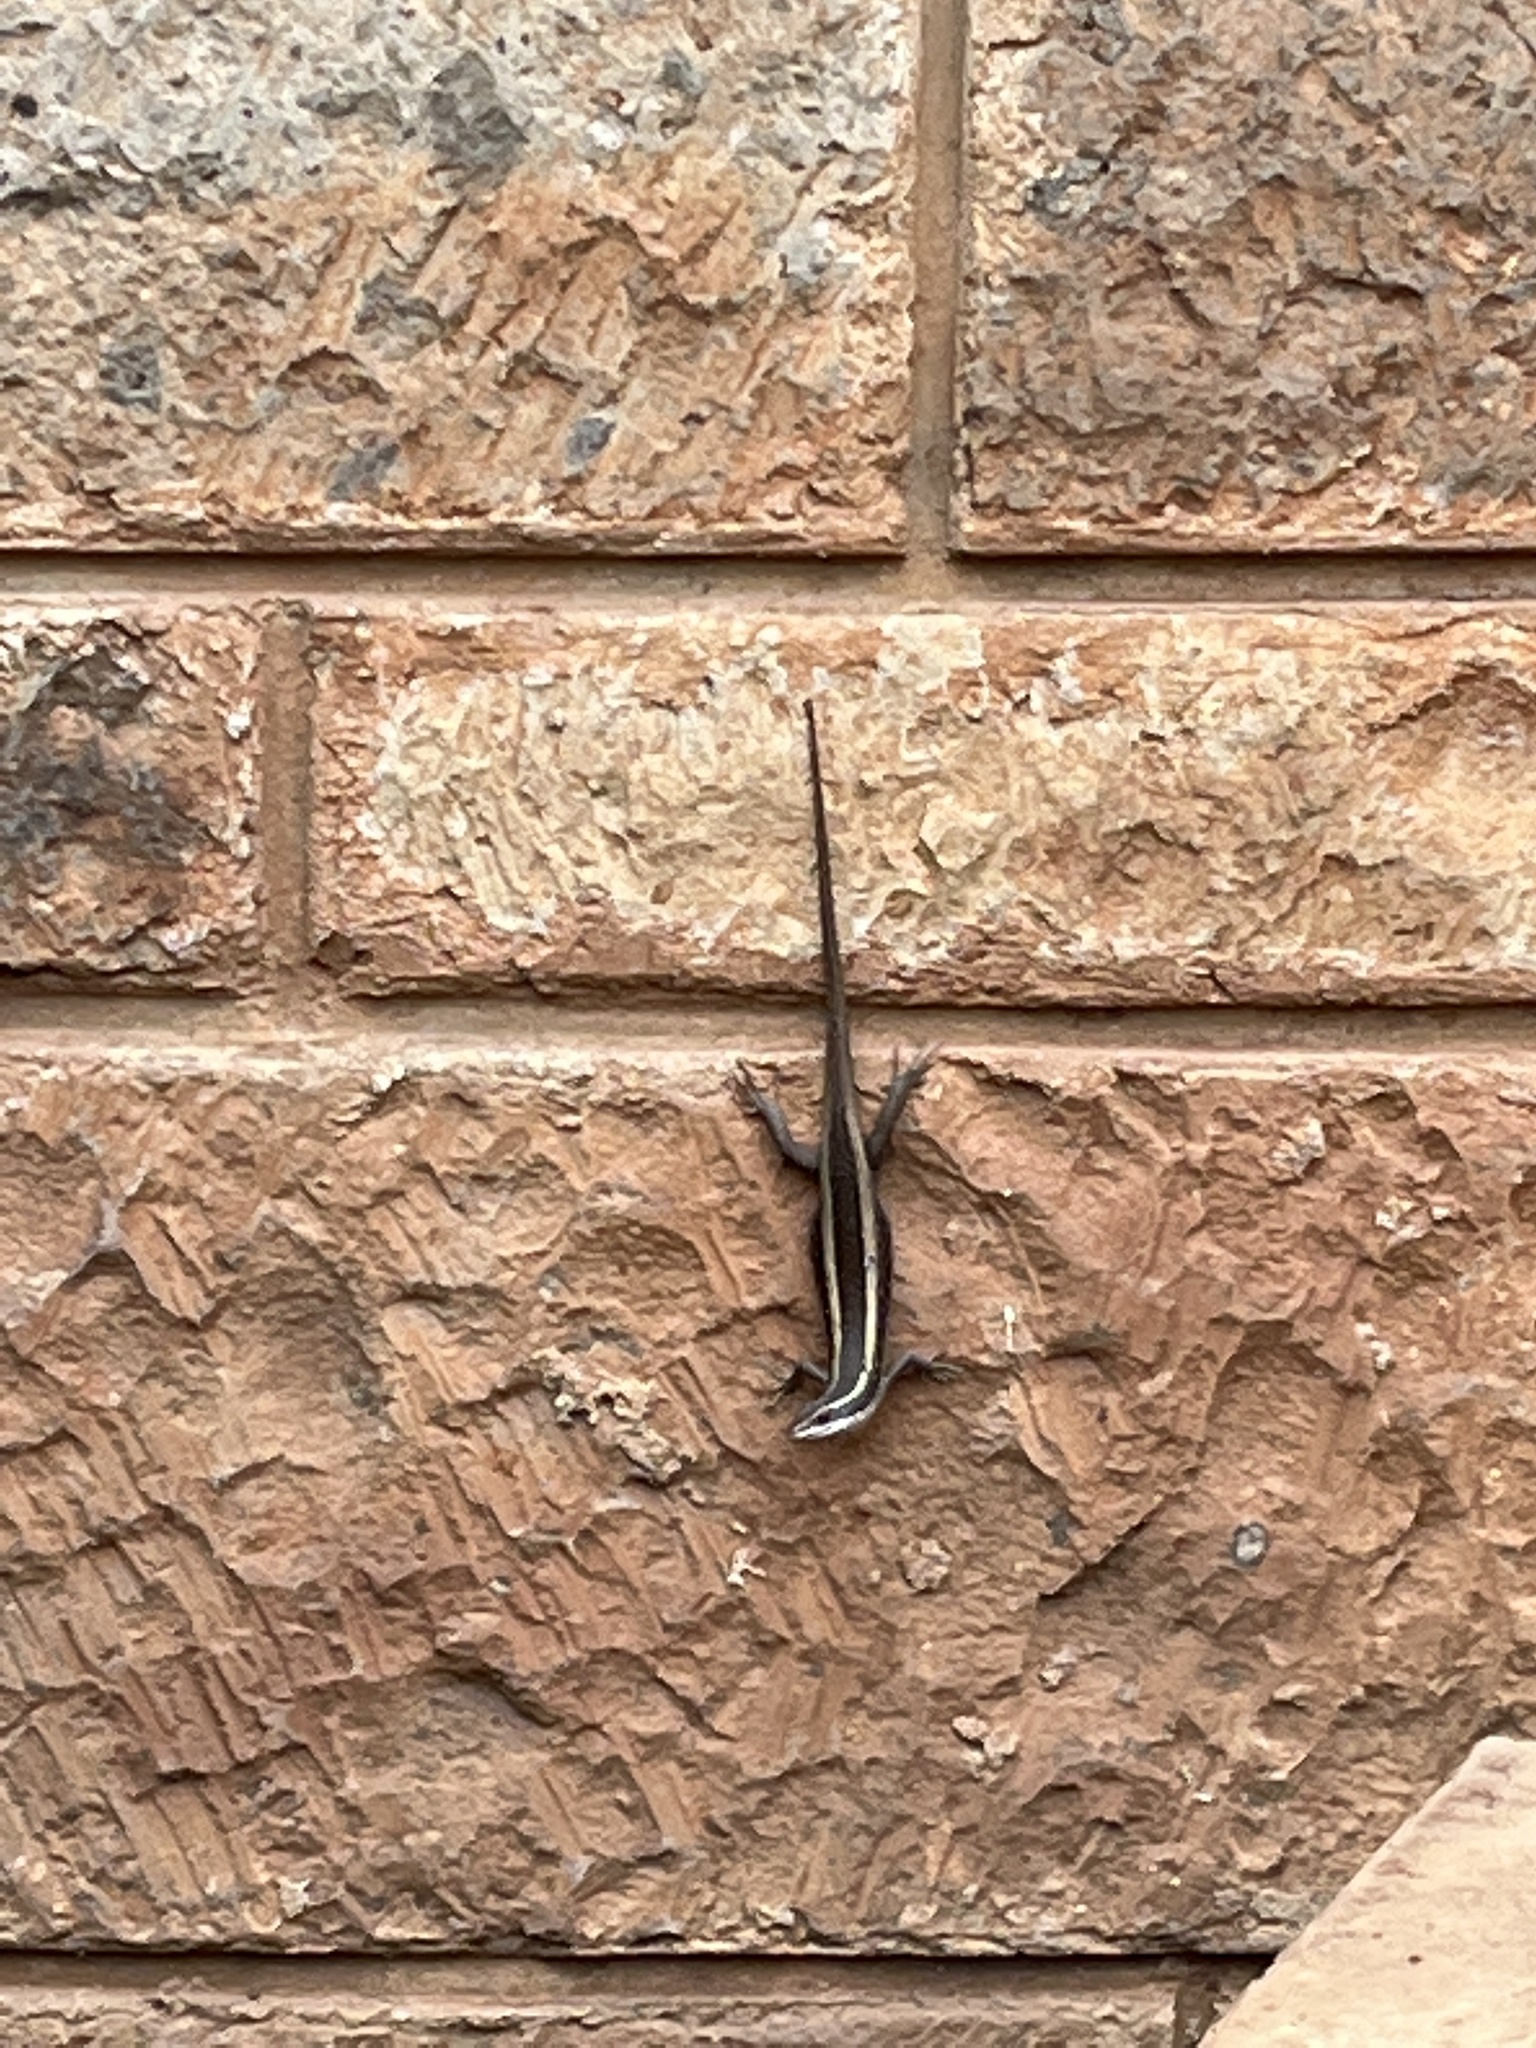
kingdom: Animalia
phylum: Chordata
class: Squamata
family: Scincidae
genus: Trachylepis
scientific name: Trachylepis striata
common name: African striped mabuya
